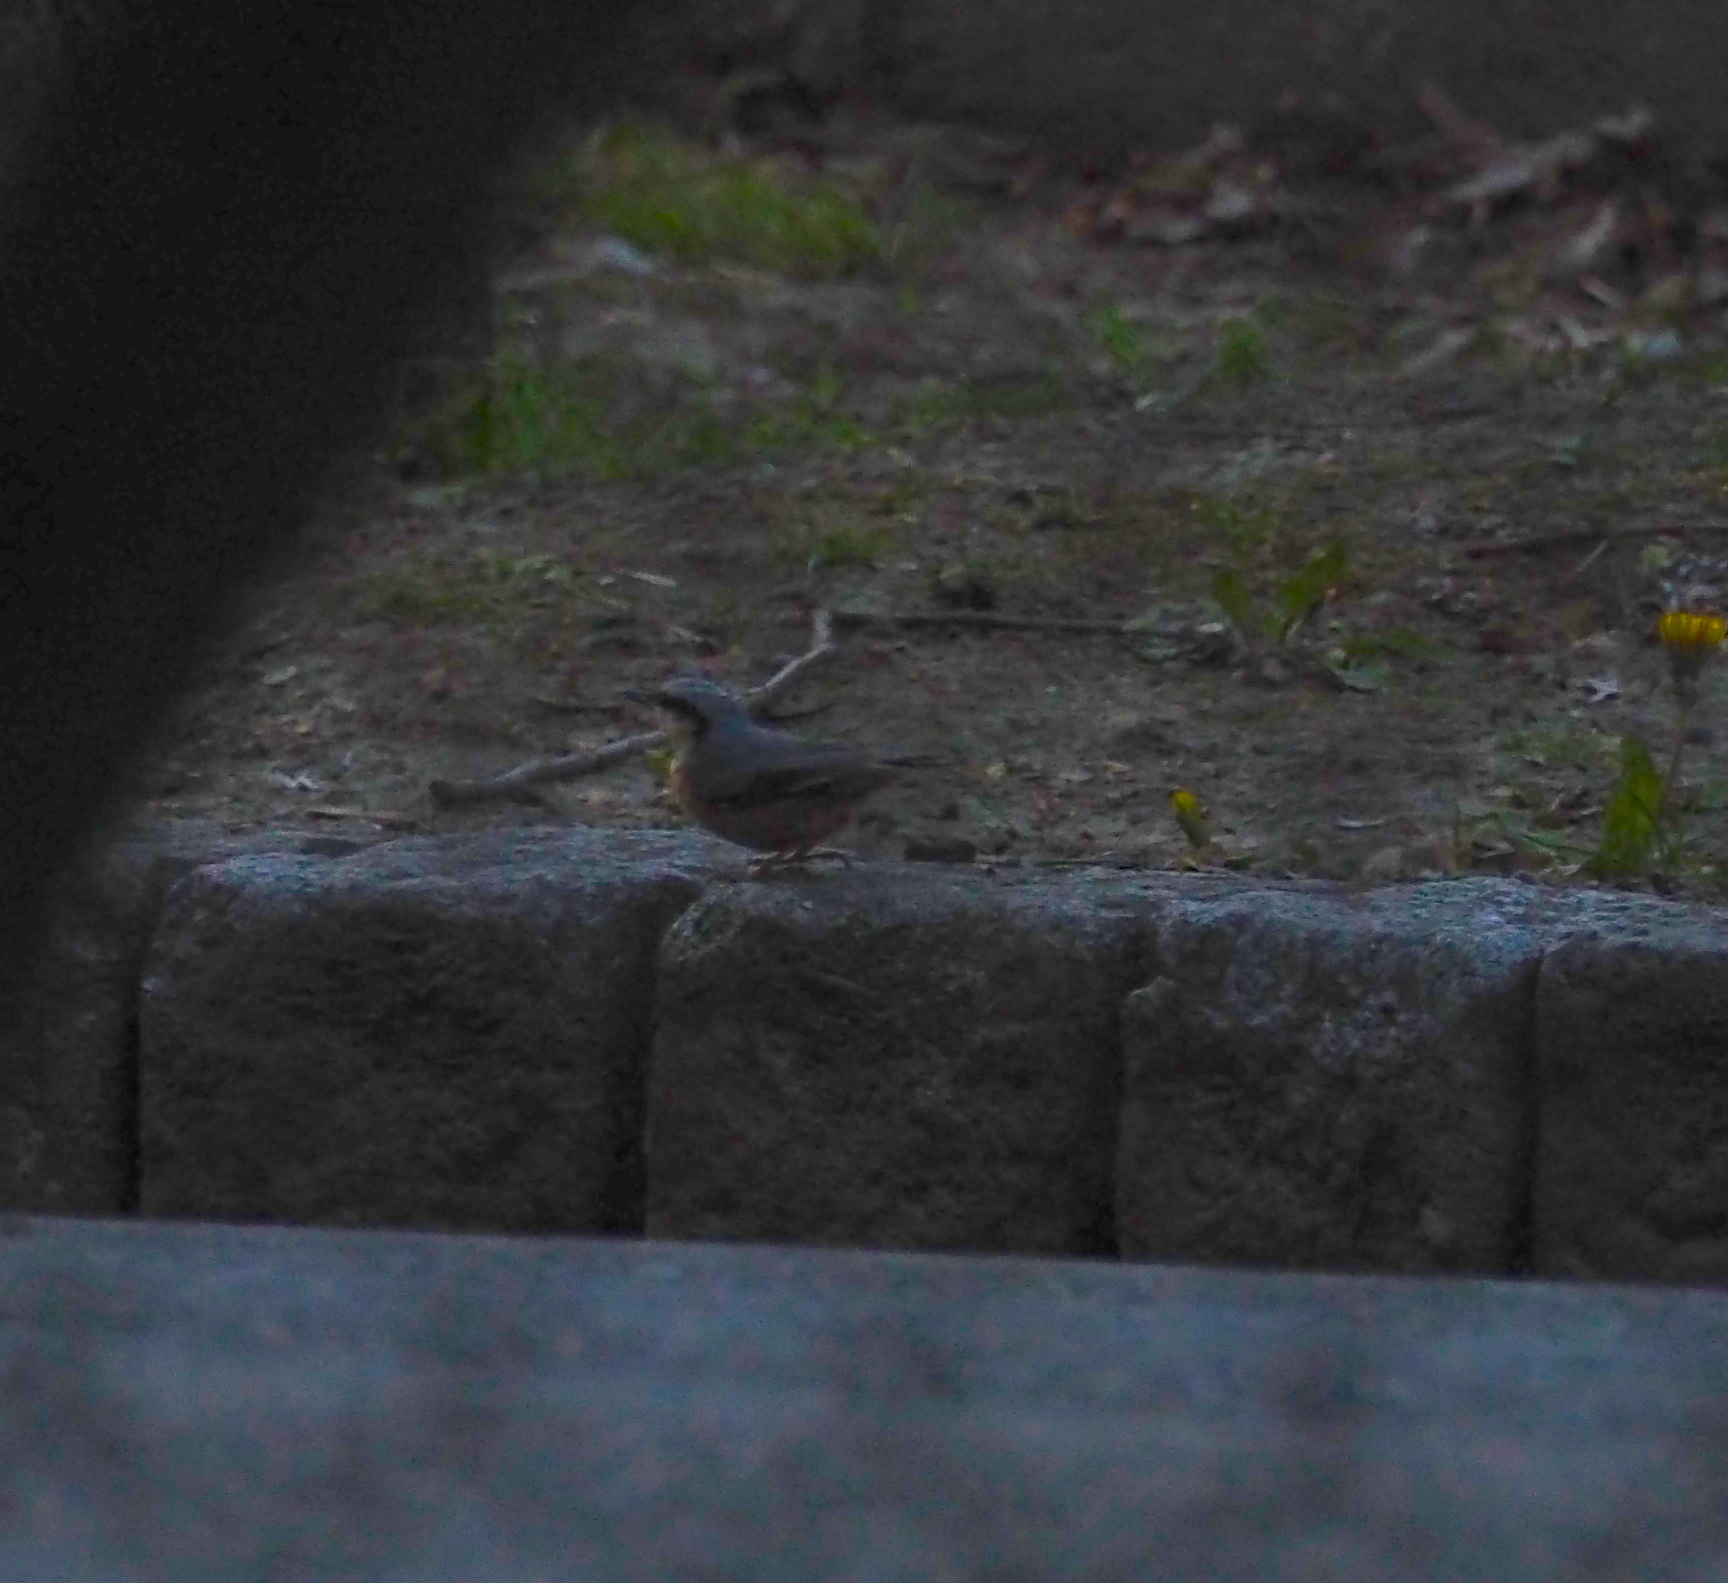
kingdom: Animalia
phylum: Chordata
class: Aves
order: Passeriformes
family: Sittidae
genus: Sitta
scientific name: Sitta europaea
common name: Eurasian nuthatch
